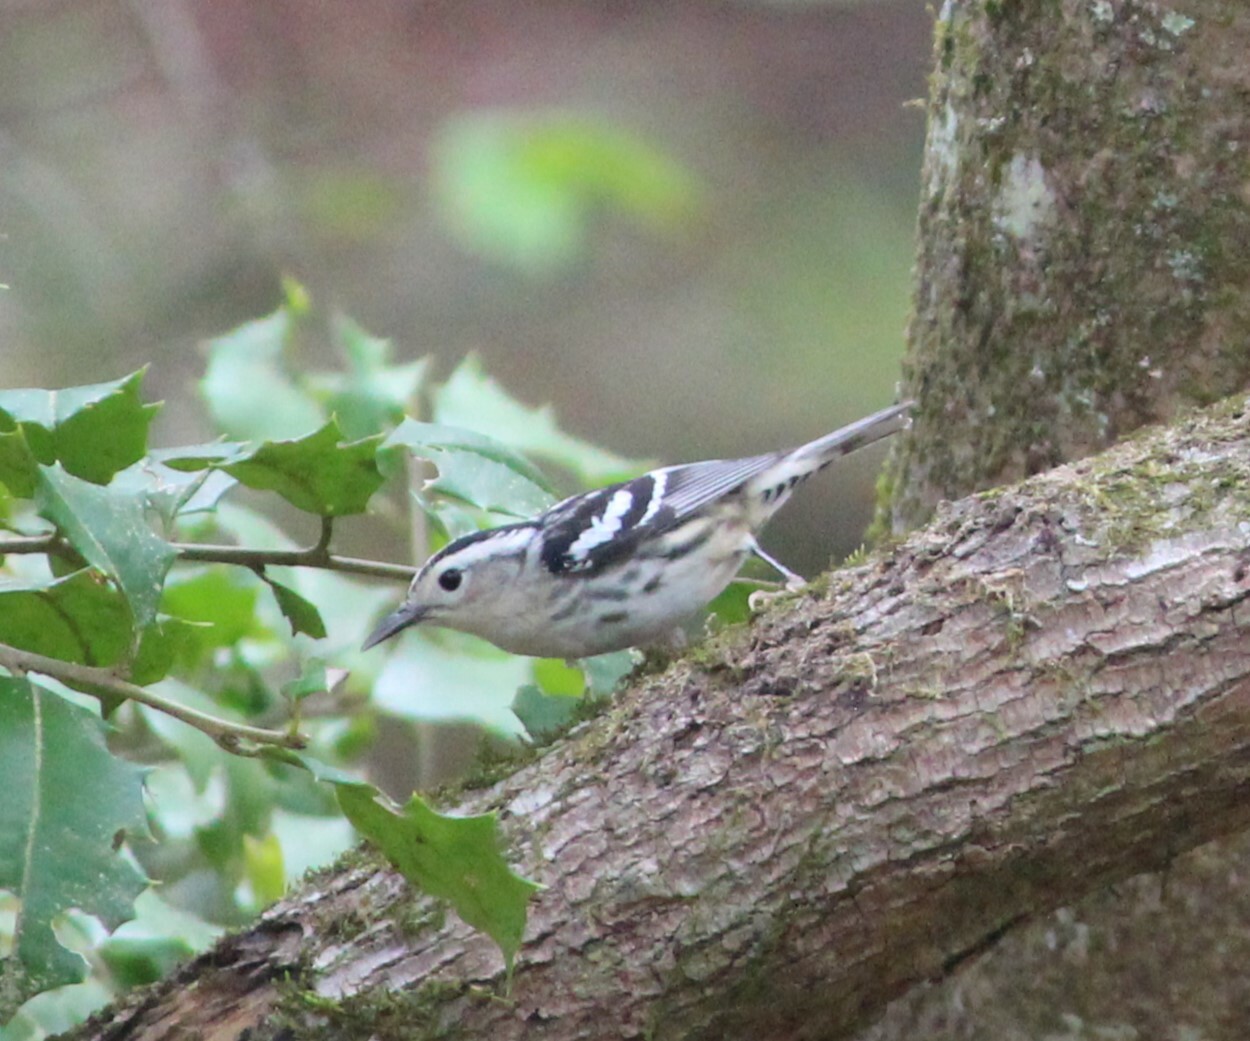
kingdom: Animalia
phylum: Chordata
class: Aves
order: Passeriformes
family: Parulidae
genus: Mniotilta
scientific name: Mniotilta varia
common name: Black-and-white warbler
